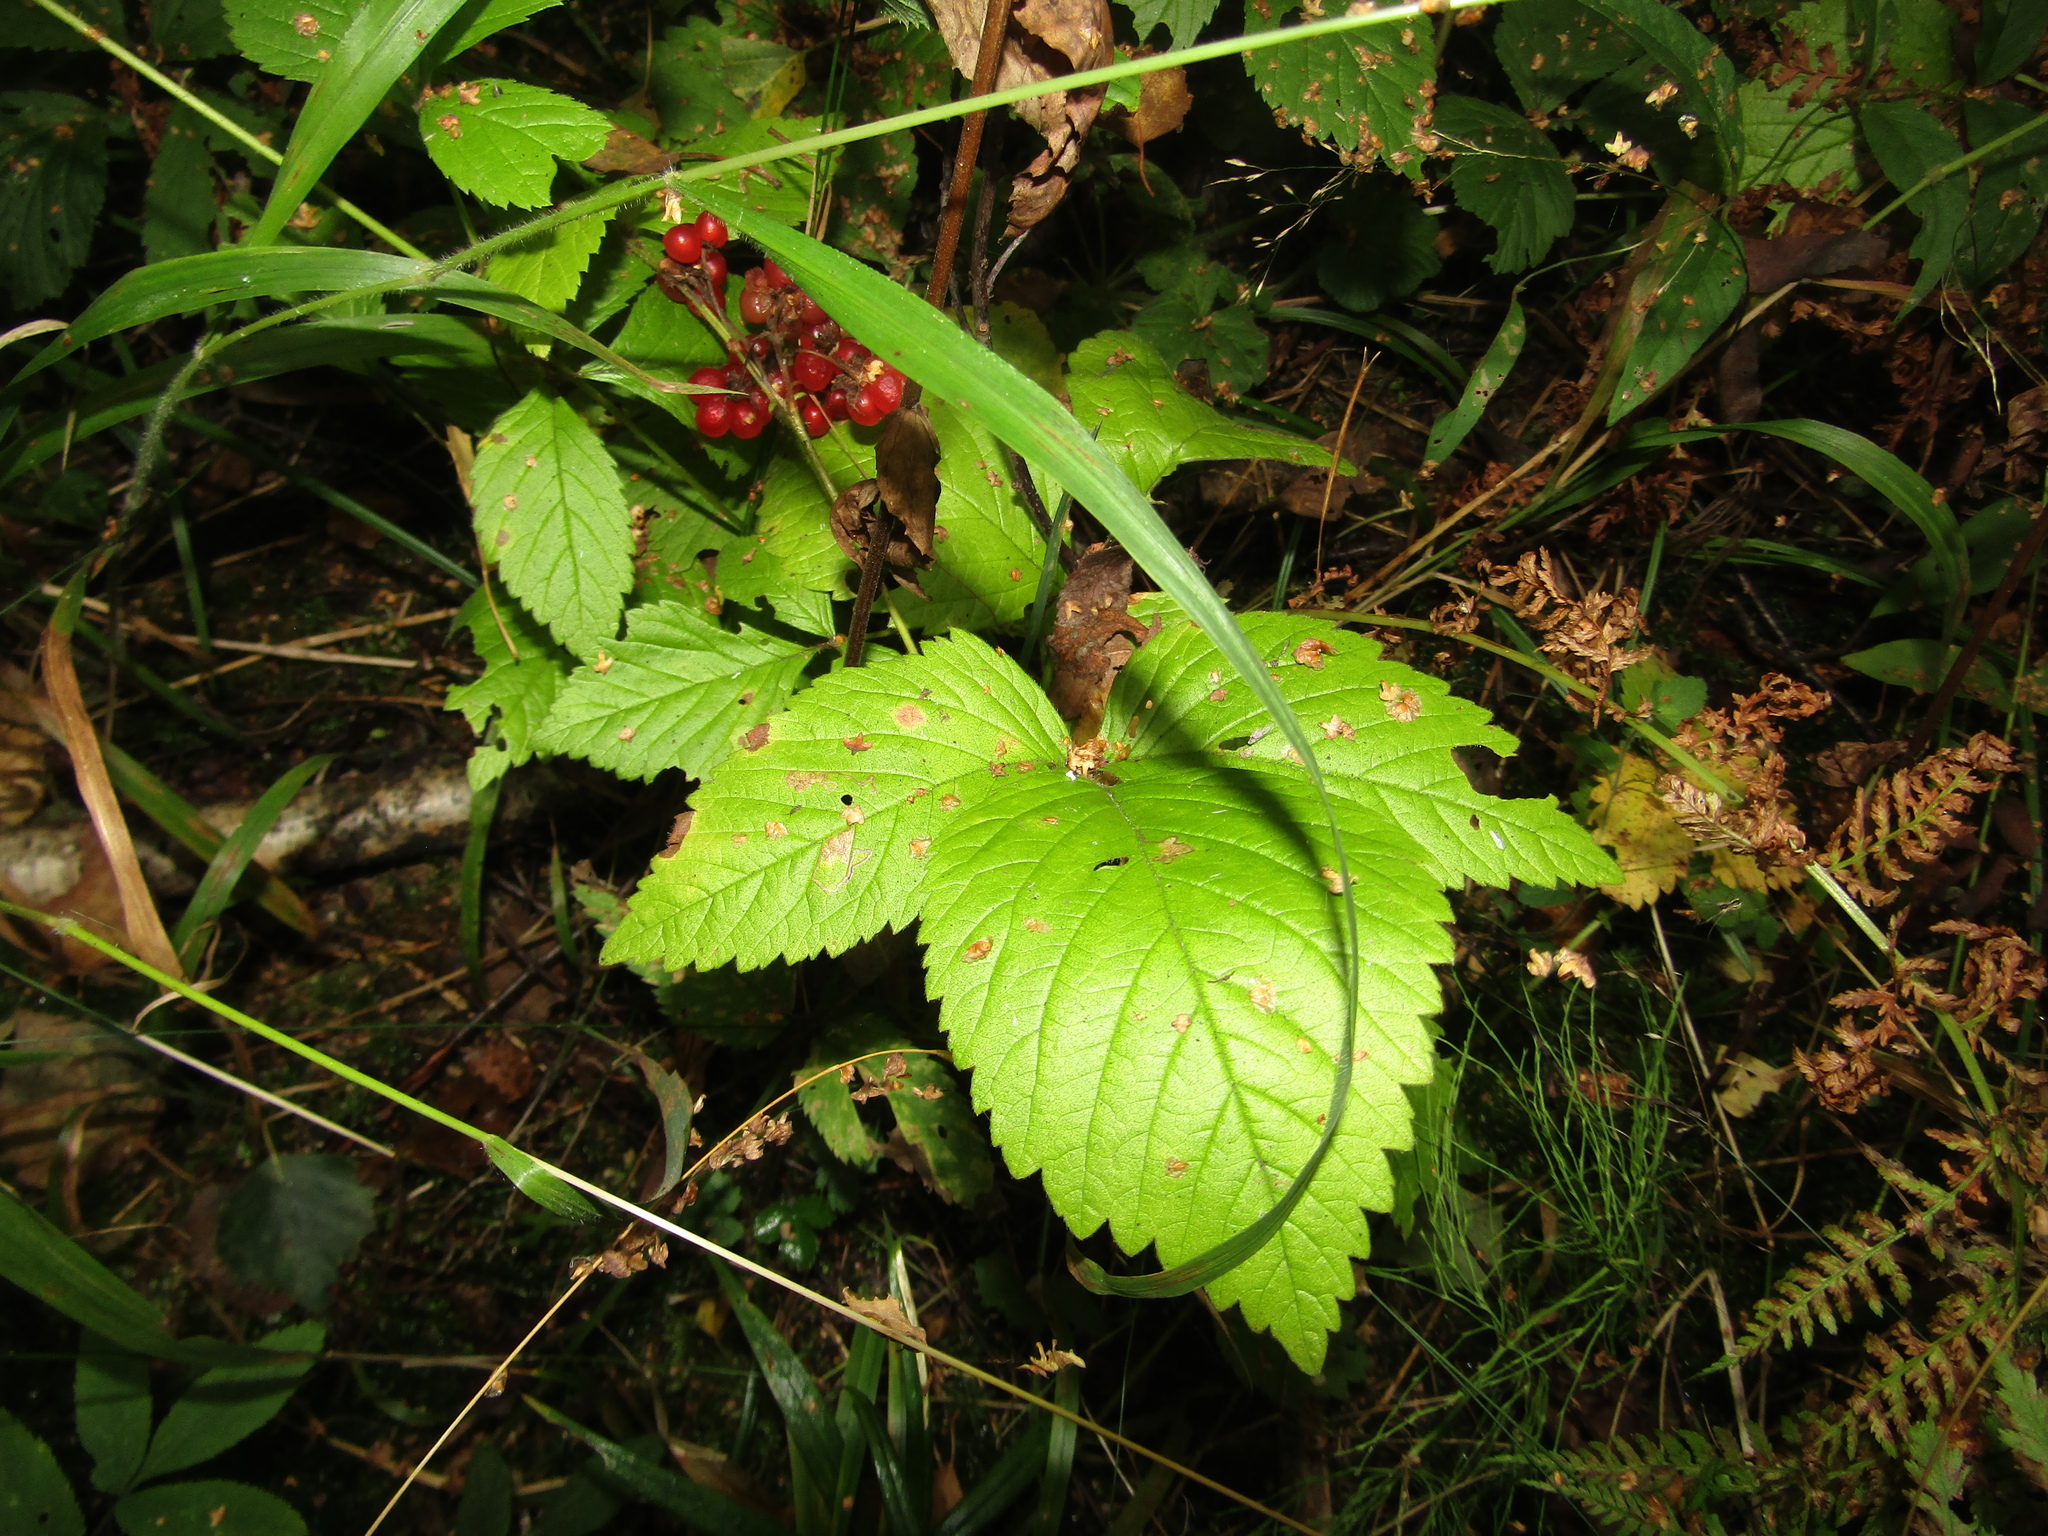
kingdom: Plantae
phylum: Tracheophyta
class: Magnoliopsida
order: Rosales
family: Rosaceae
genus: Rubus
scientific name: Rubus saxatilis
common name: Stone bramble
